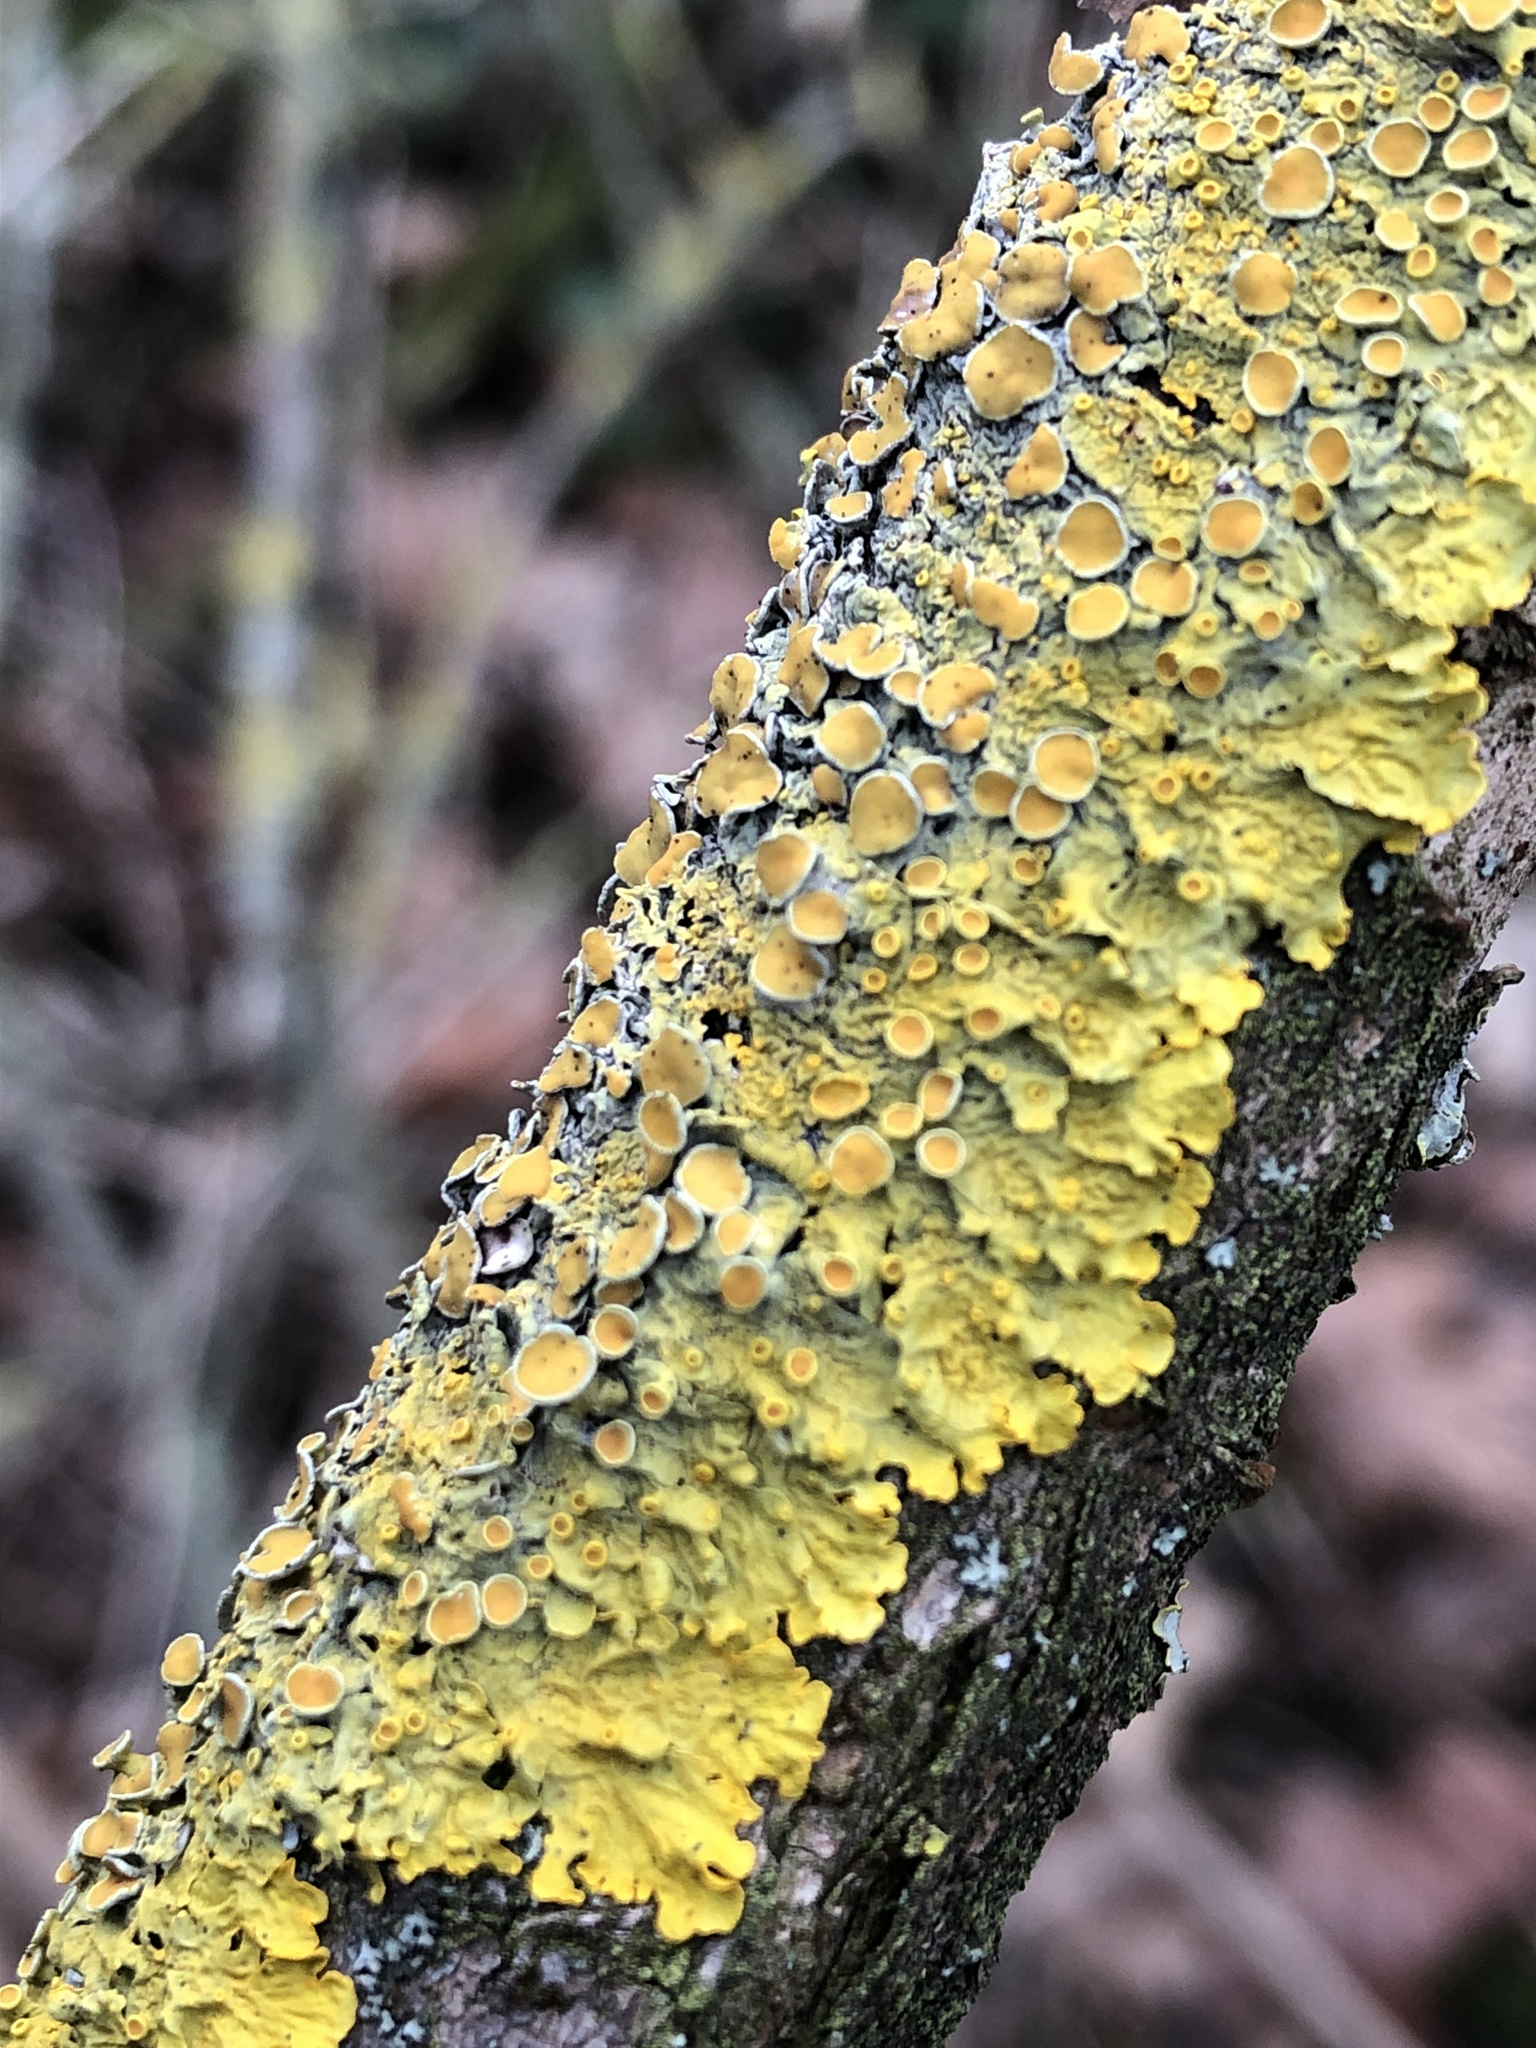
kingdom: Fungi
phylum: Ascomycota
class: Lecanoromycetes
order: Teloschistales
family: Teloschistaceae
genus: Xanthoria
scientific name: Xanthoria parietina
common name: Common orange lichen
